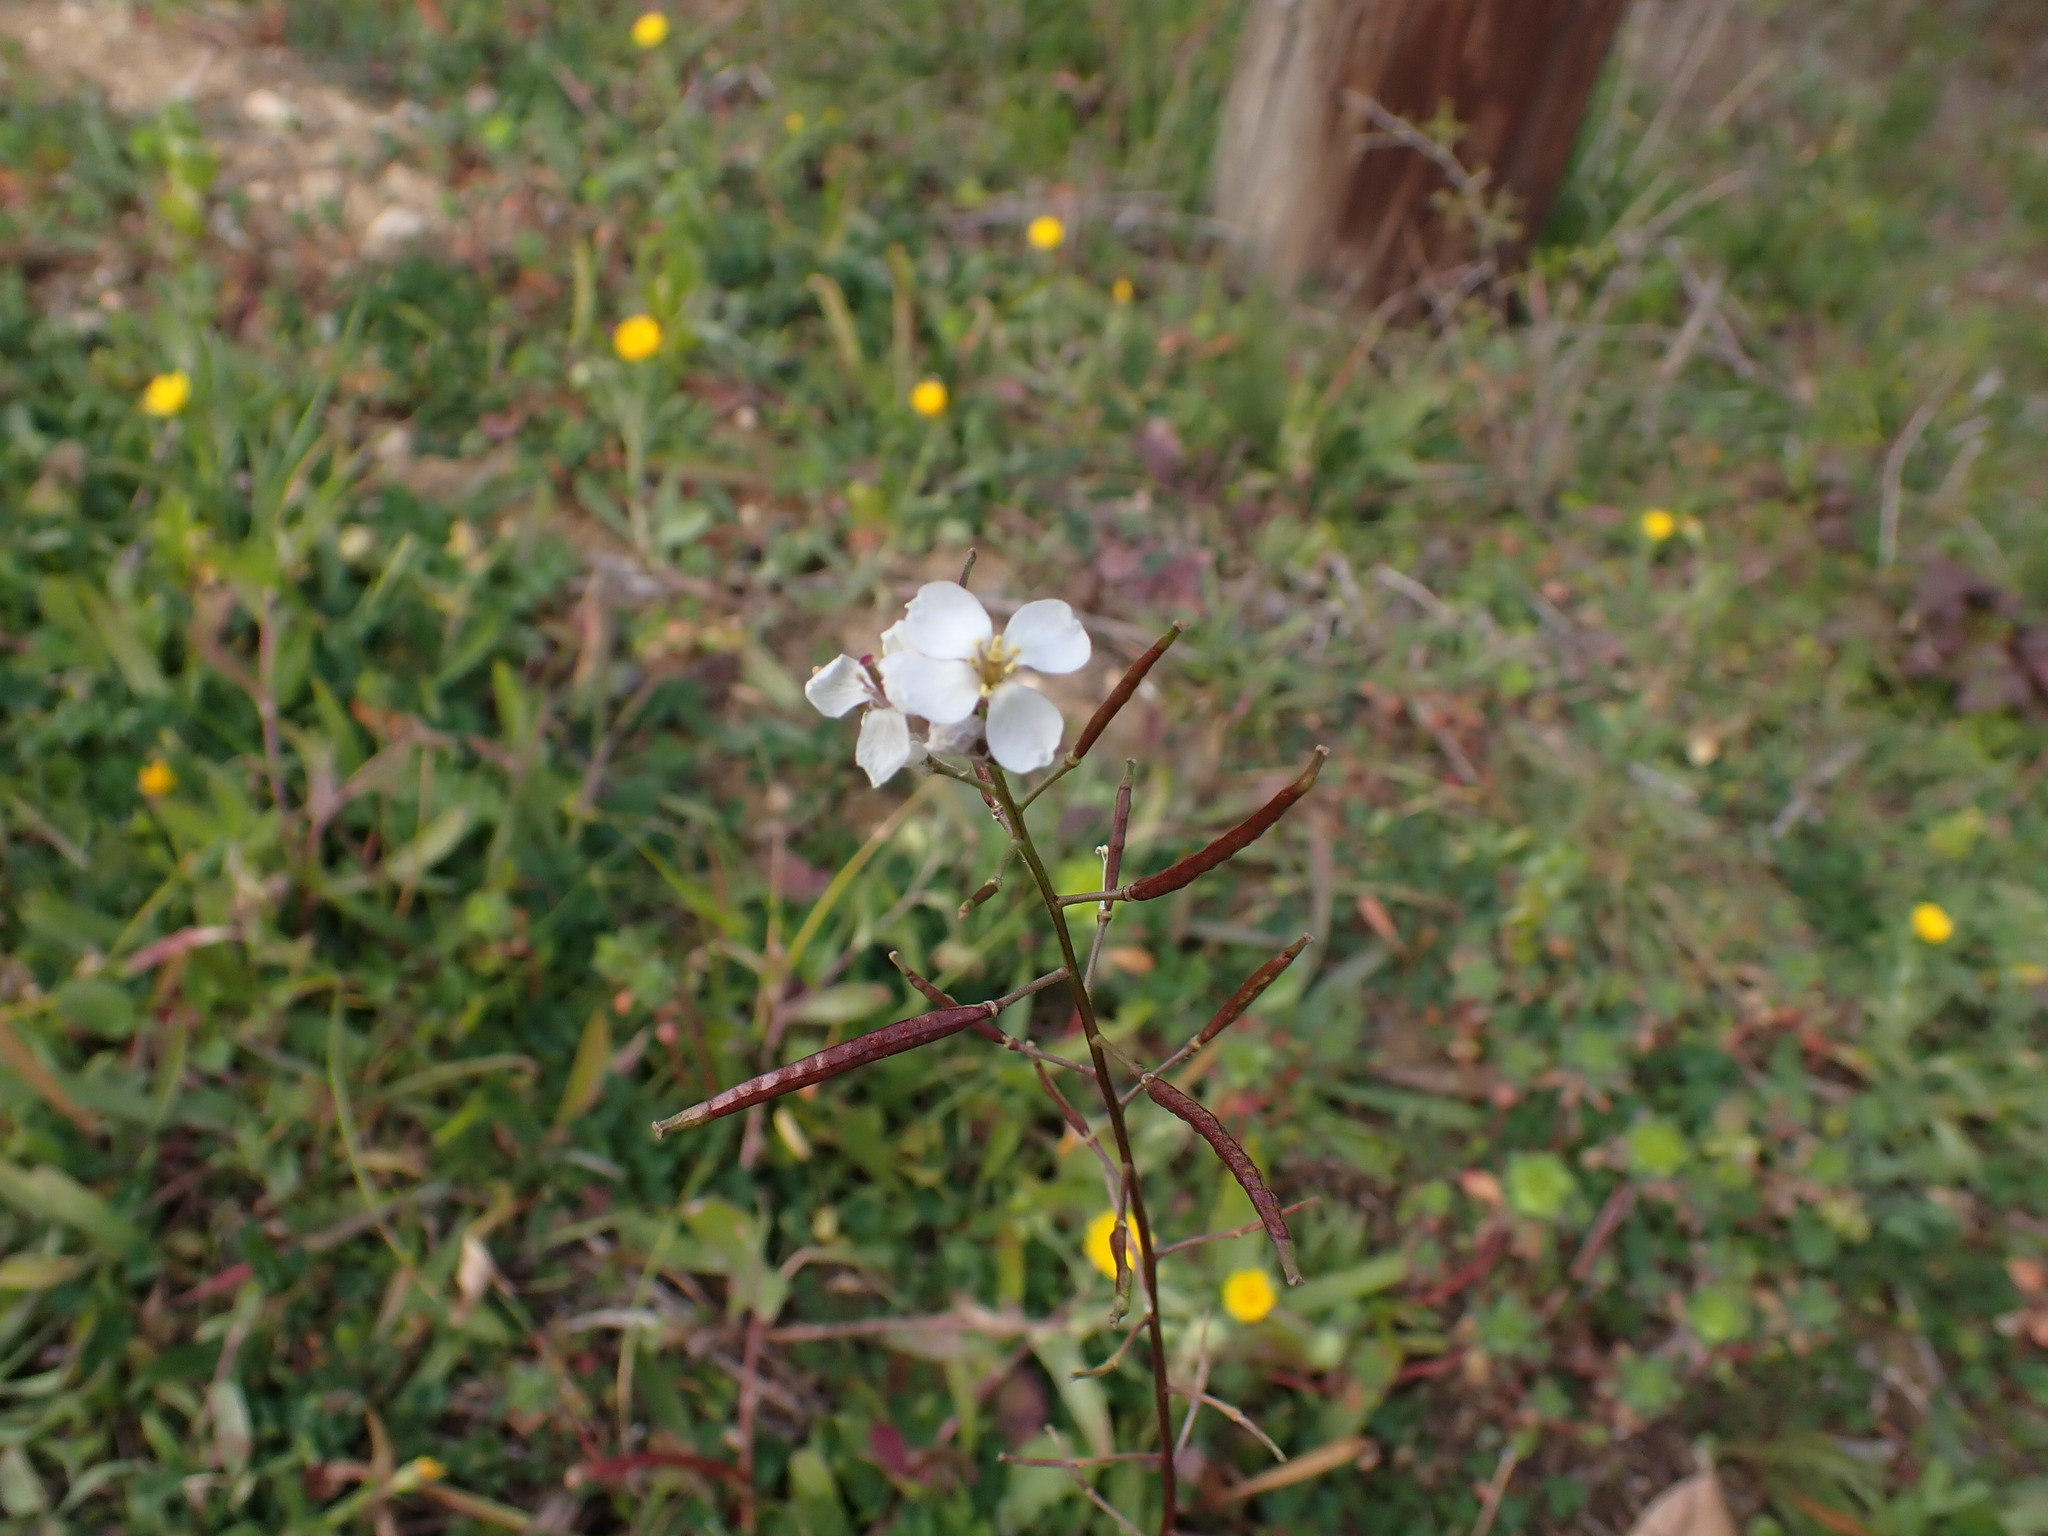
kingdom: Plantae
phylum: Tracheophyta
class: Magnoliopsida
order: Brassicales
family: Brassicaceae
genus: Diplotaxis
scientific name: Diplotaxis erucoides
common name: White rocket
